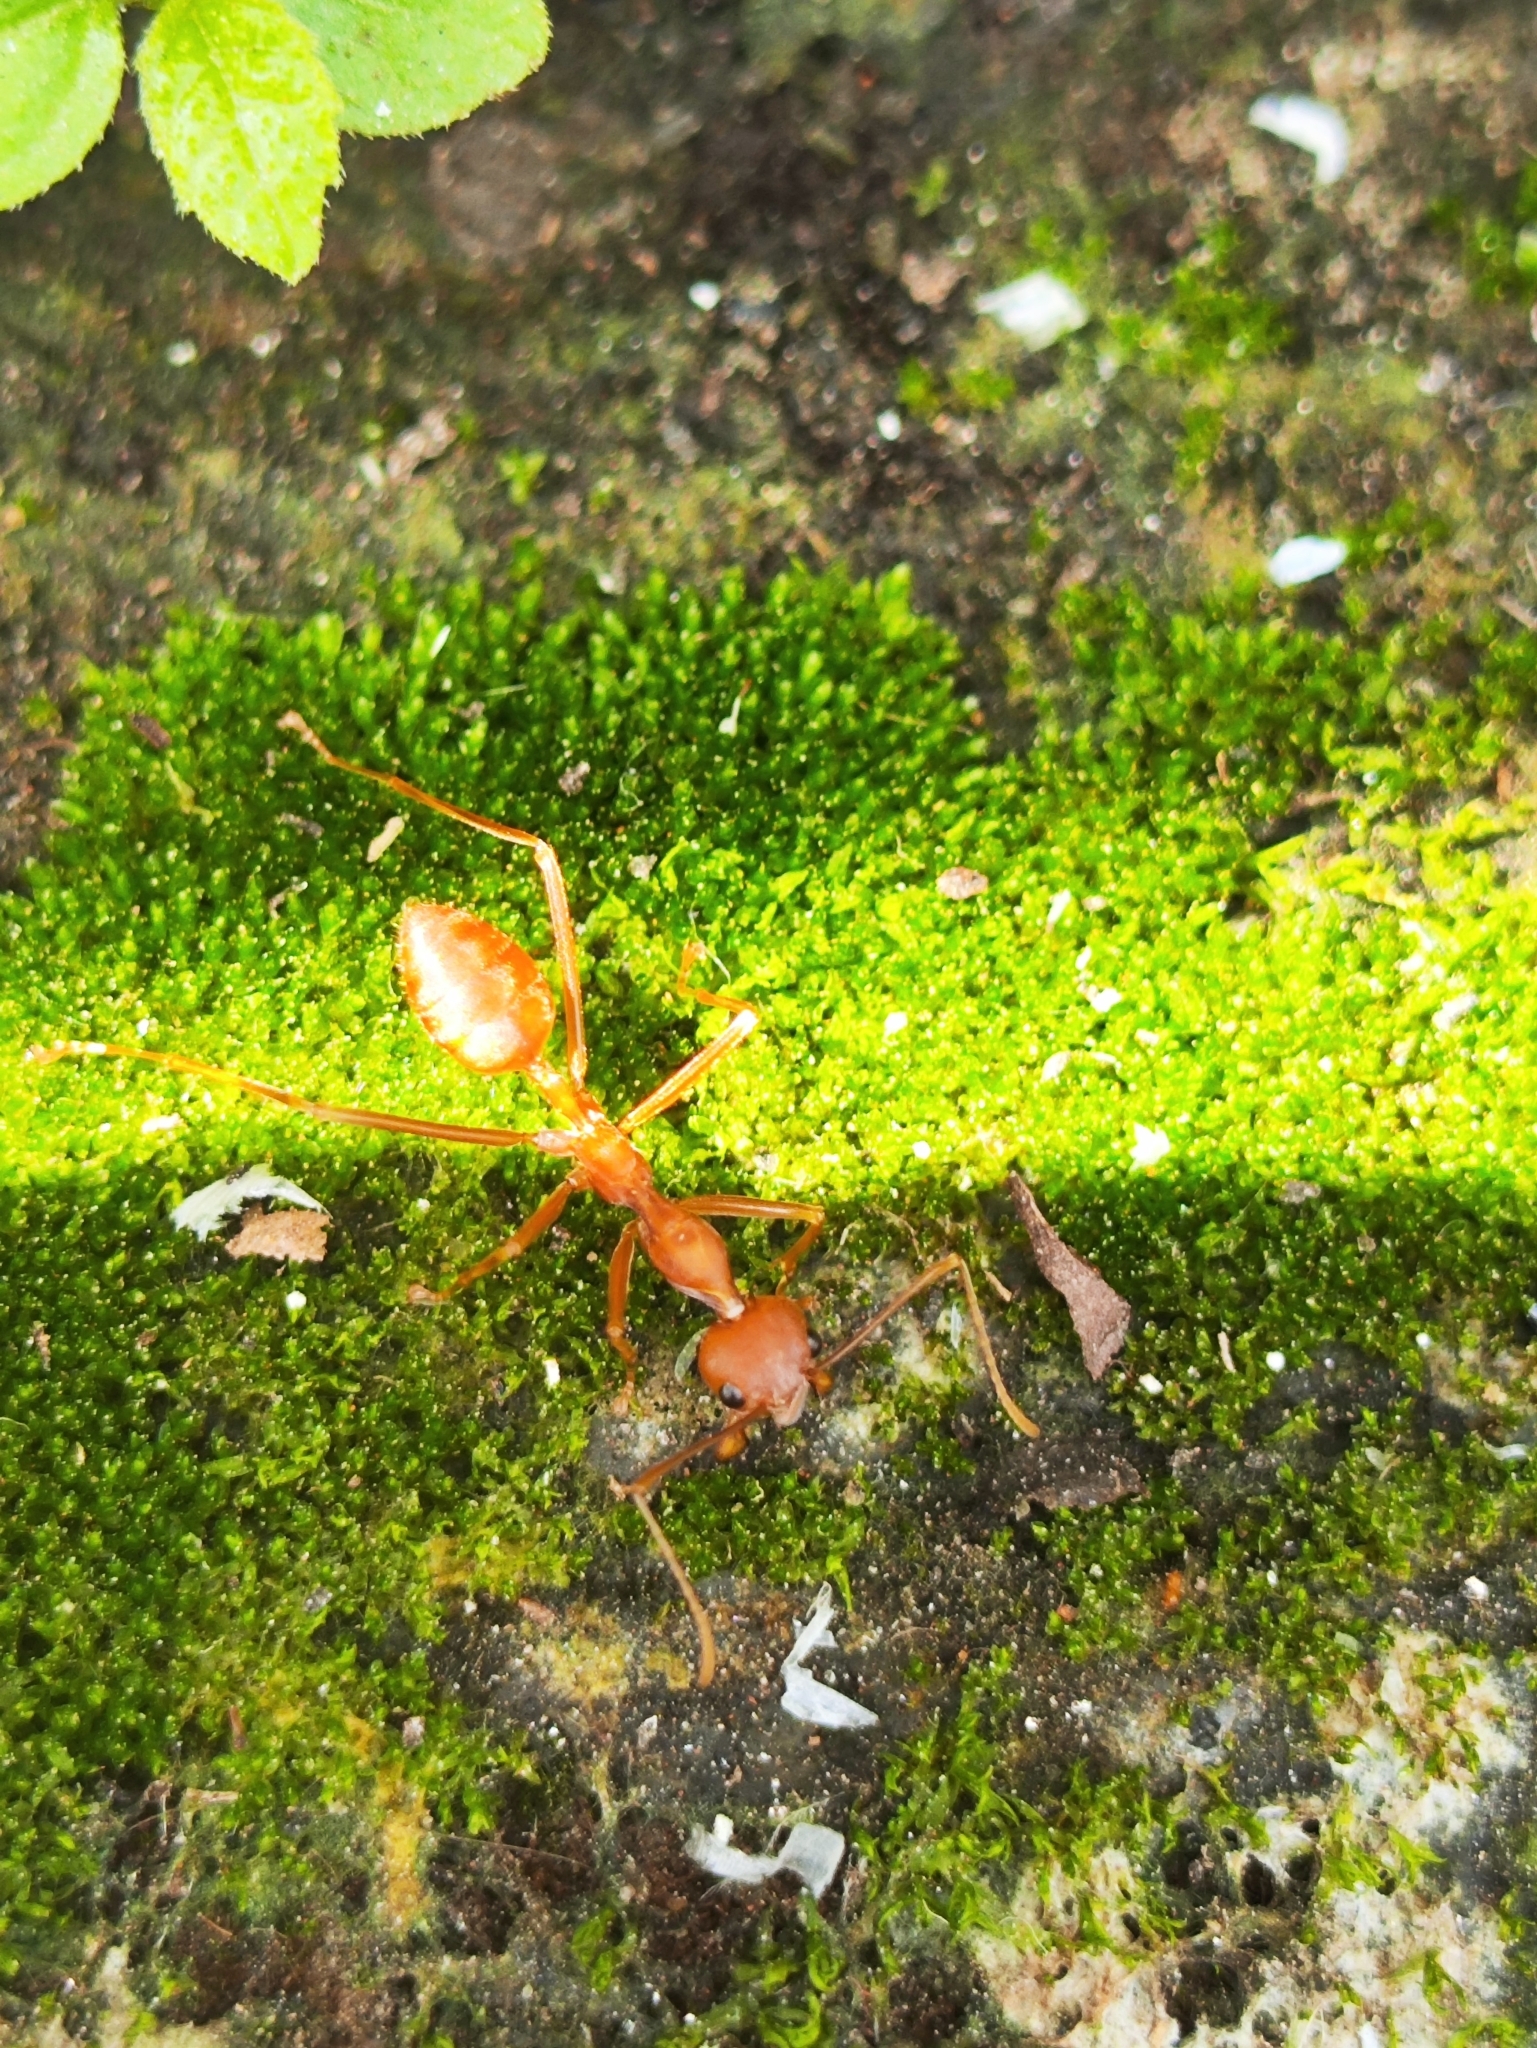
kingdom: Animalia
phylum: Arthropoda
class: Insecta
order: Hymenoptera
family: Formicidae
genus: Oecophylla
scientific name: Oecophylla smaragdina
